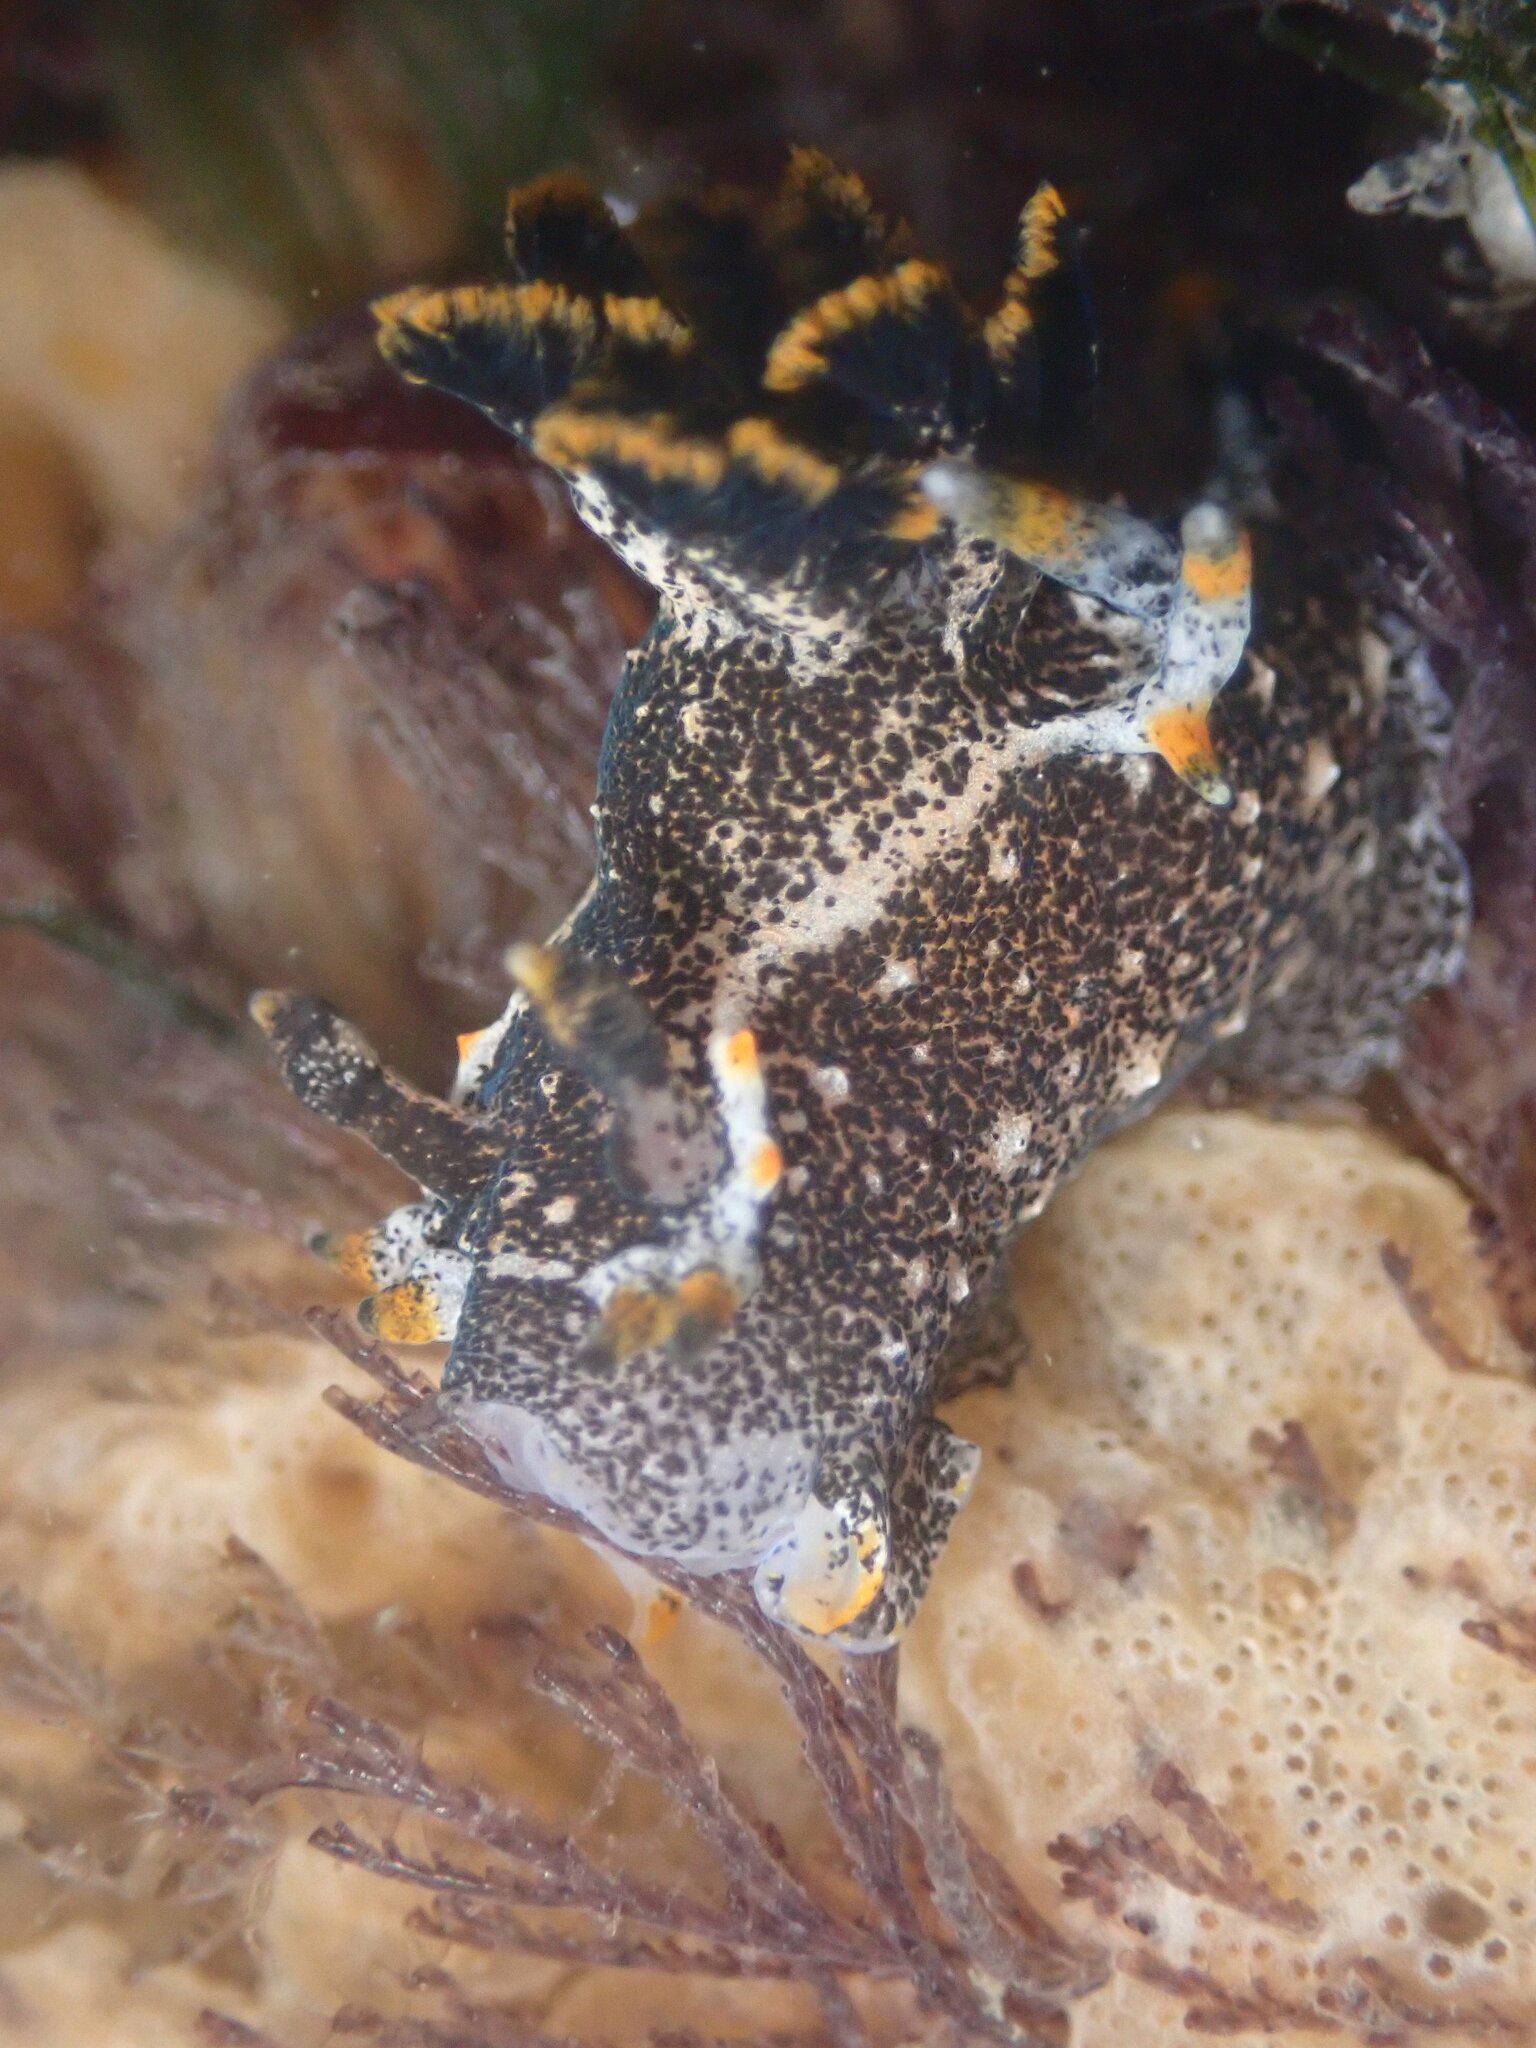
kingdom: Animalia
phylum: Mollusca
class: Gastropoda
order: Nudibranchia
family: Polyceridae
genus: Polycera
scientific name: Polycera hedgpethi
